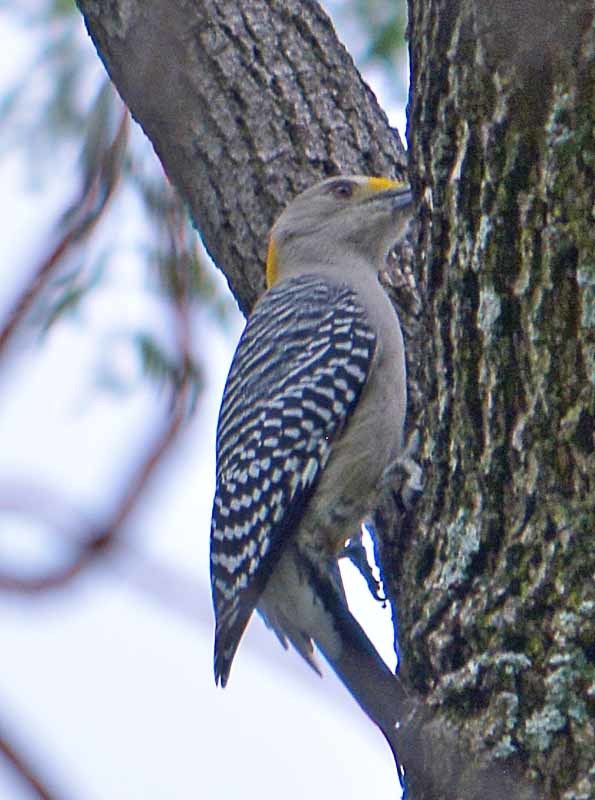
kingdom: Animalia
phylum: Chordata
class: Aves
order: Piciformes
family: Picidae
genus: Melanerpes
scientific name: Melanerpes aurifrons
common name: Golden-fronted woodpecker
